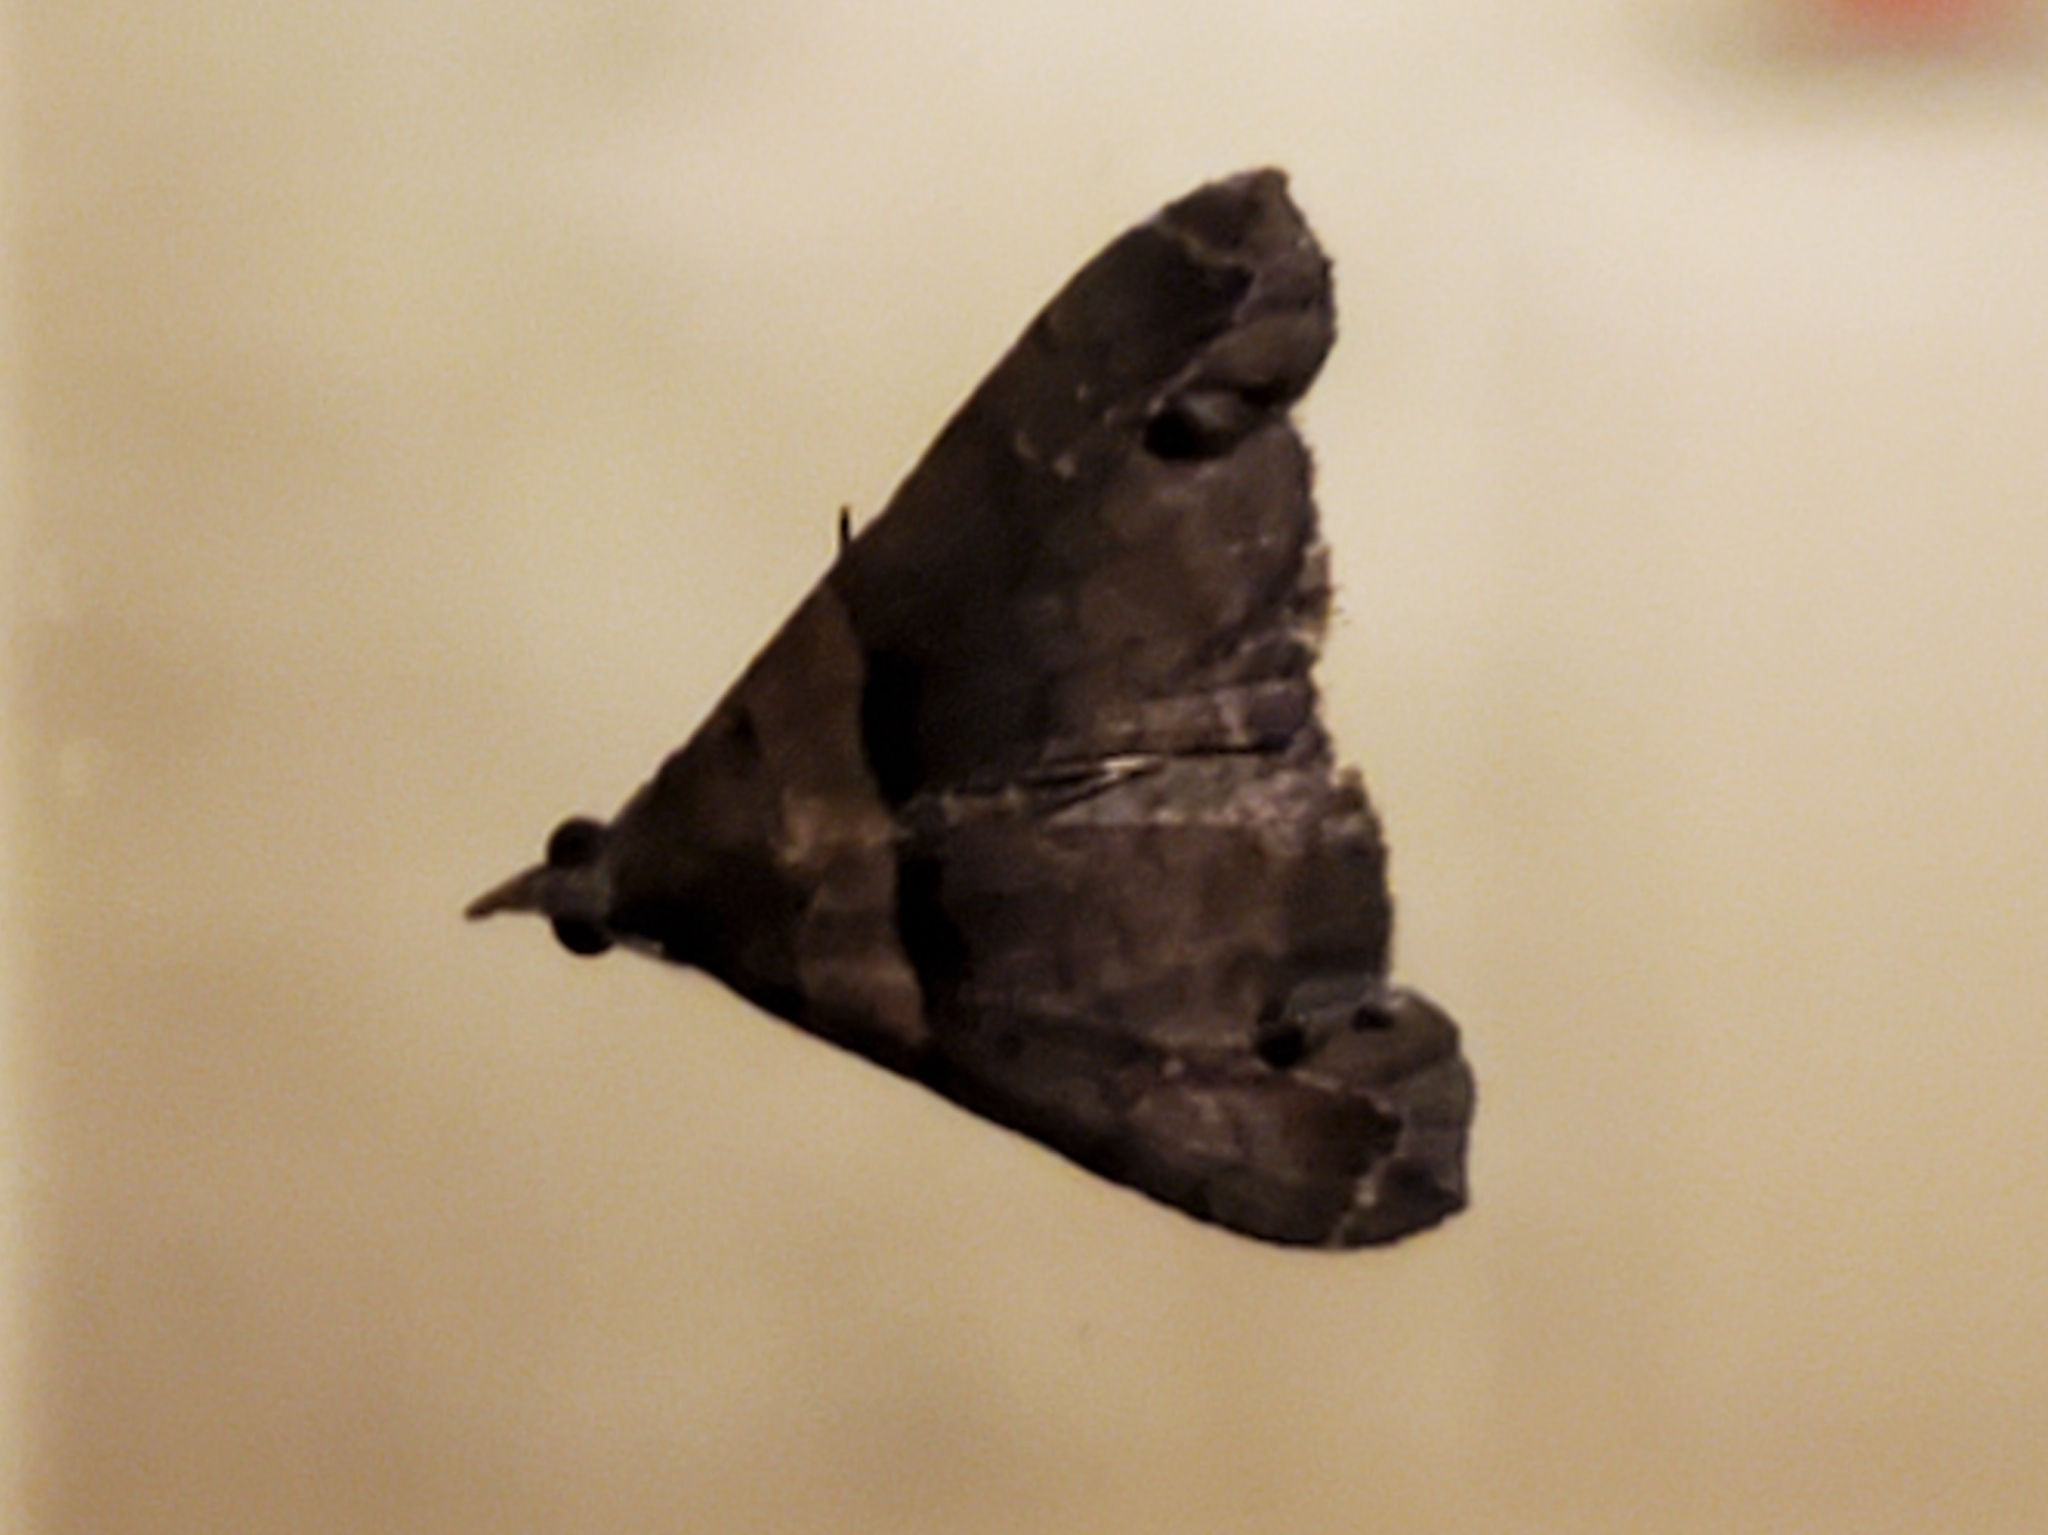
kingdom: Animalia
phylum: Arthropoda
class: Insecta
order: Lepidoptera
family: Erebidae
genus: Lascoria
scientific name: Lascoria ambigualis
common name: Ambiguous moth
